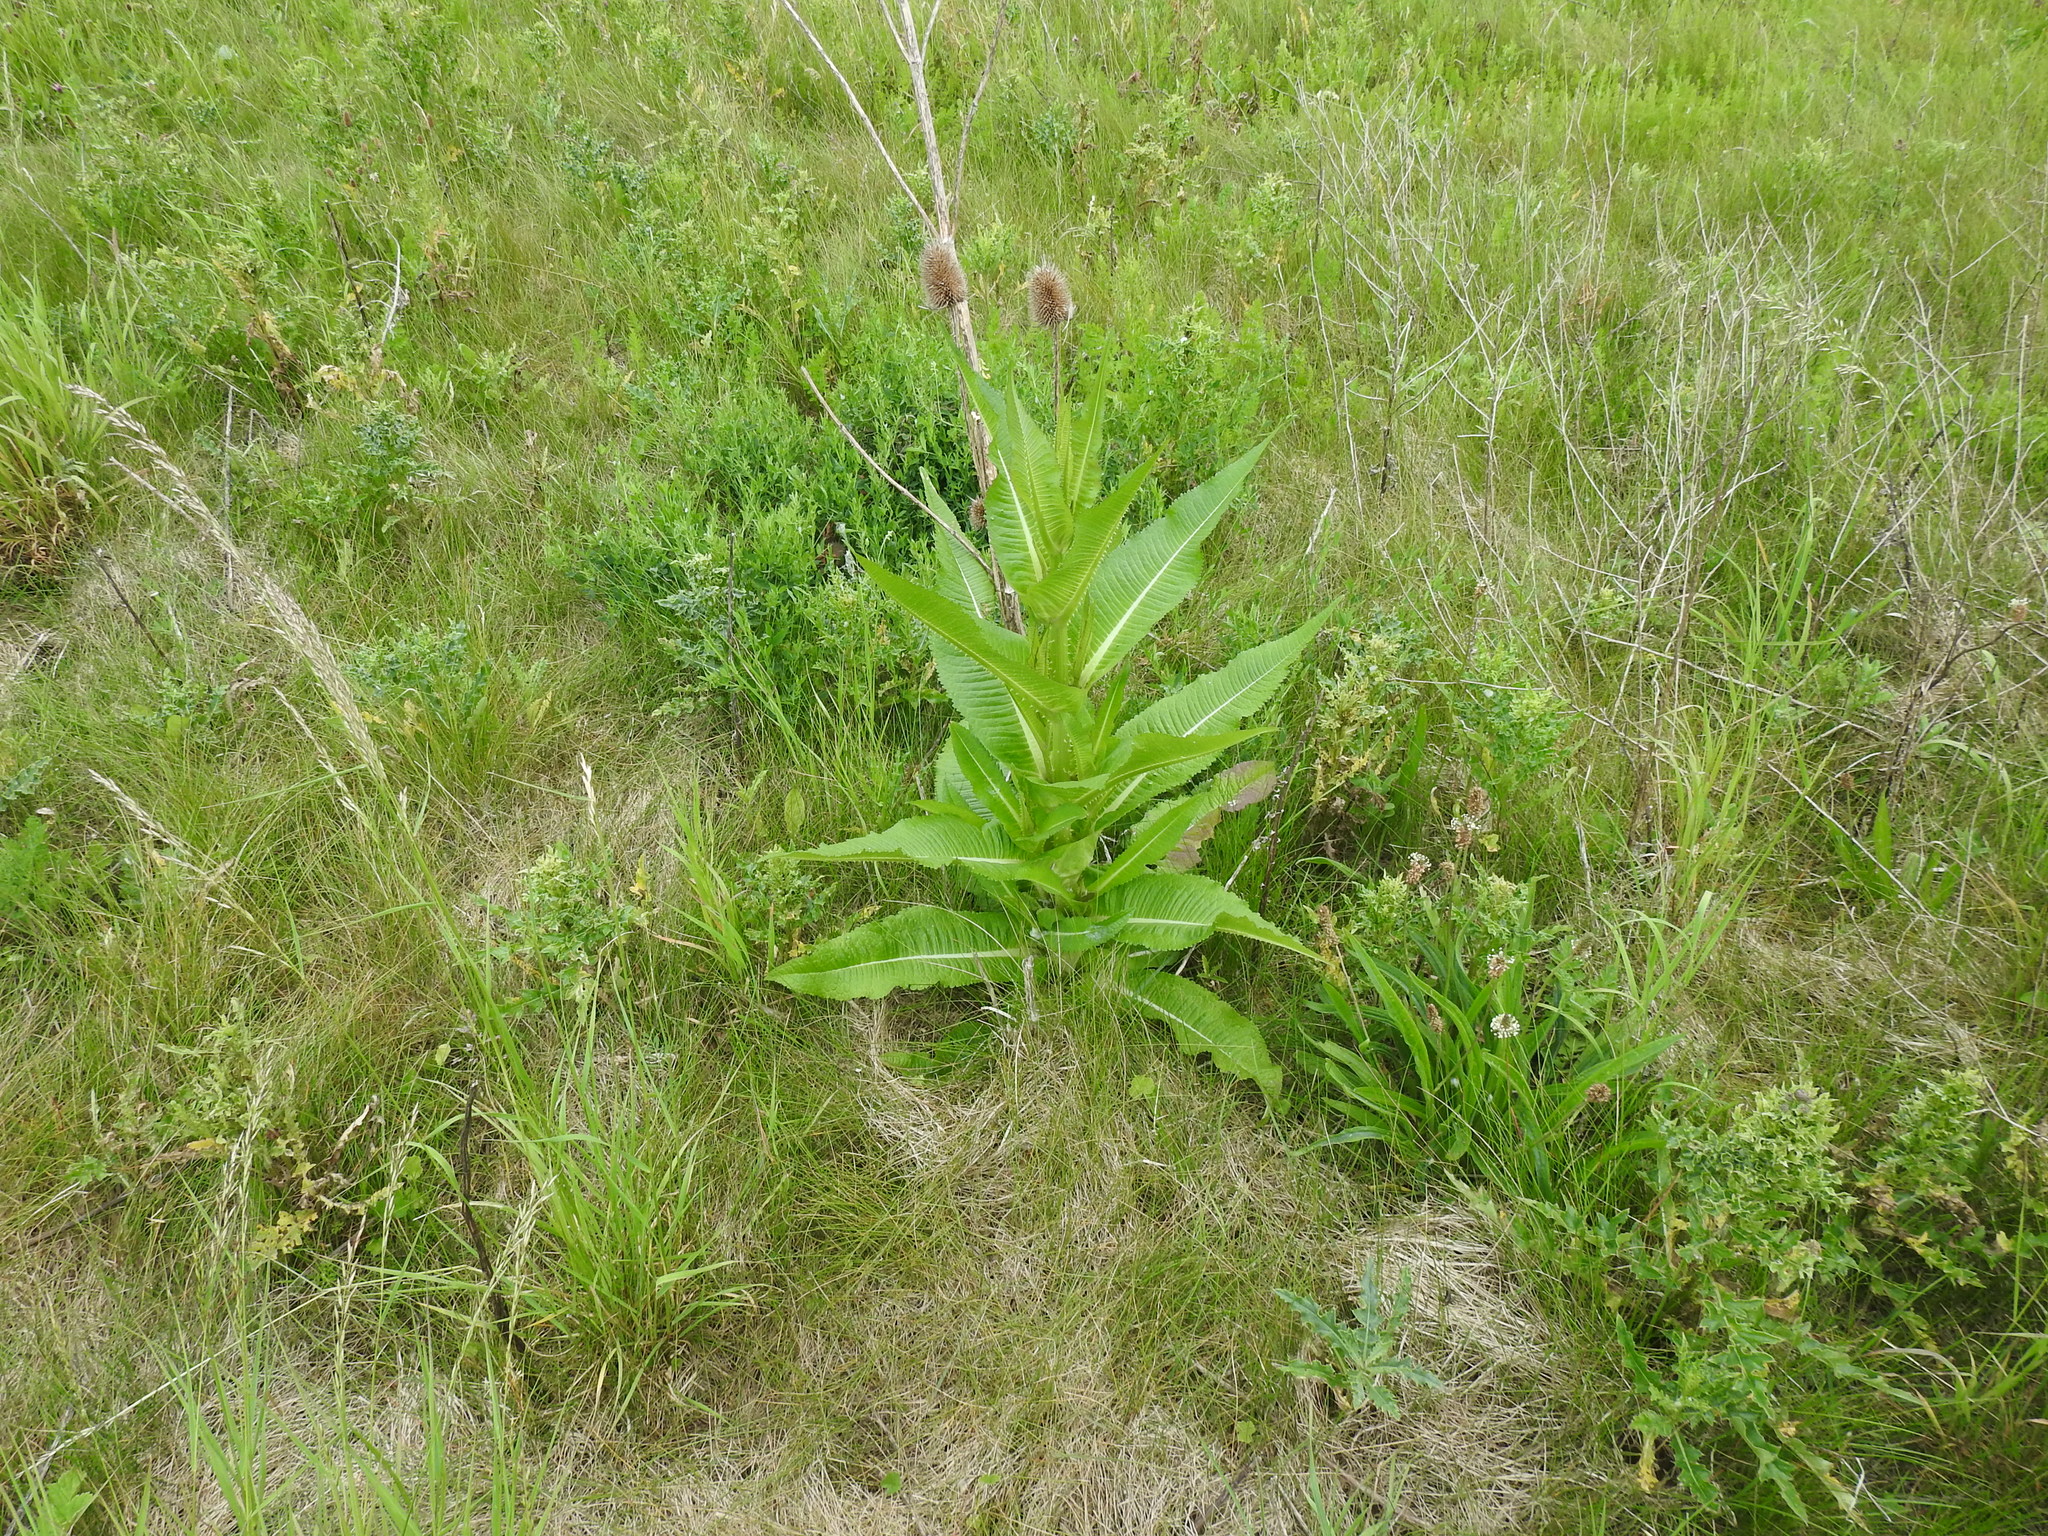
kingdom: Plantae
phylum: Tracheophyta
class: Magnoliopsida
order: Dipsacales
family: Caprifoliaceae
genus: Dipsacus
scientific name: Dipsacus fullonum
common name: Teasel
